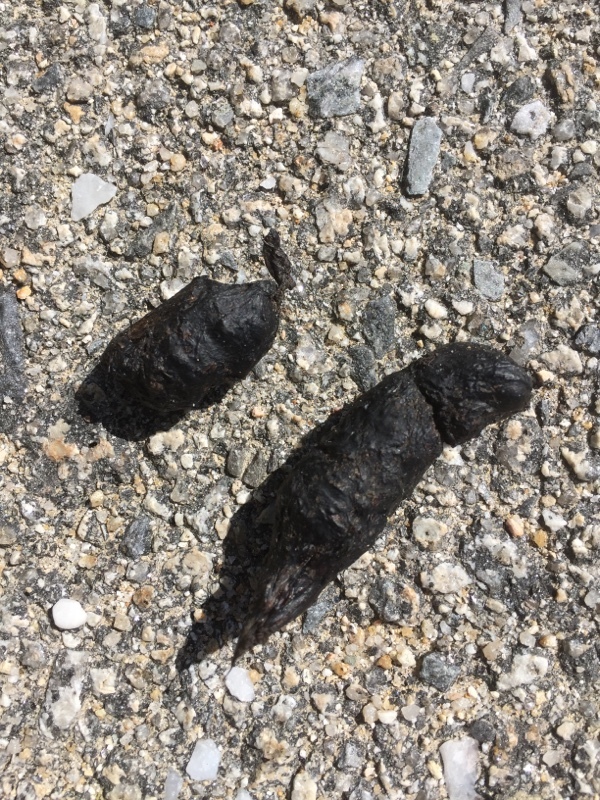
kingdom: Animalia
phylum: Chordata
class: Mammalia
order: Carnivora
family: Canidae
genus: Vulpes
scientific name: Vulpes vulpes
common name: Red fox
